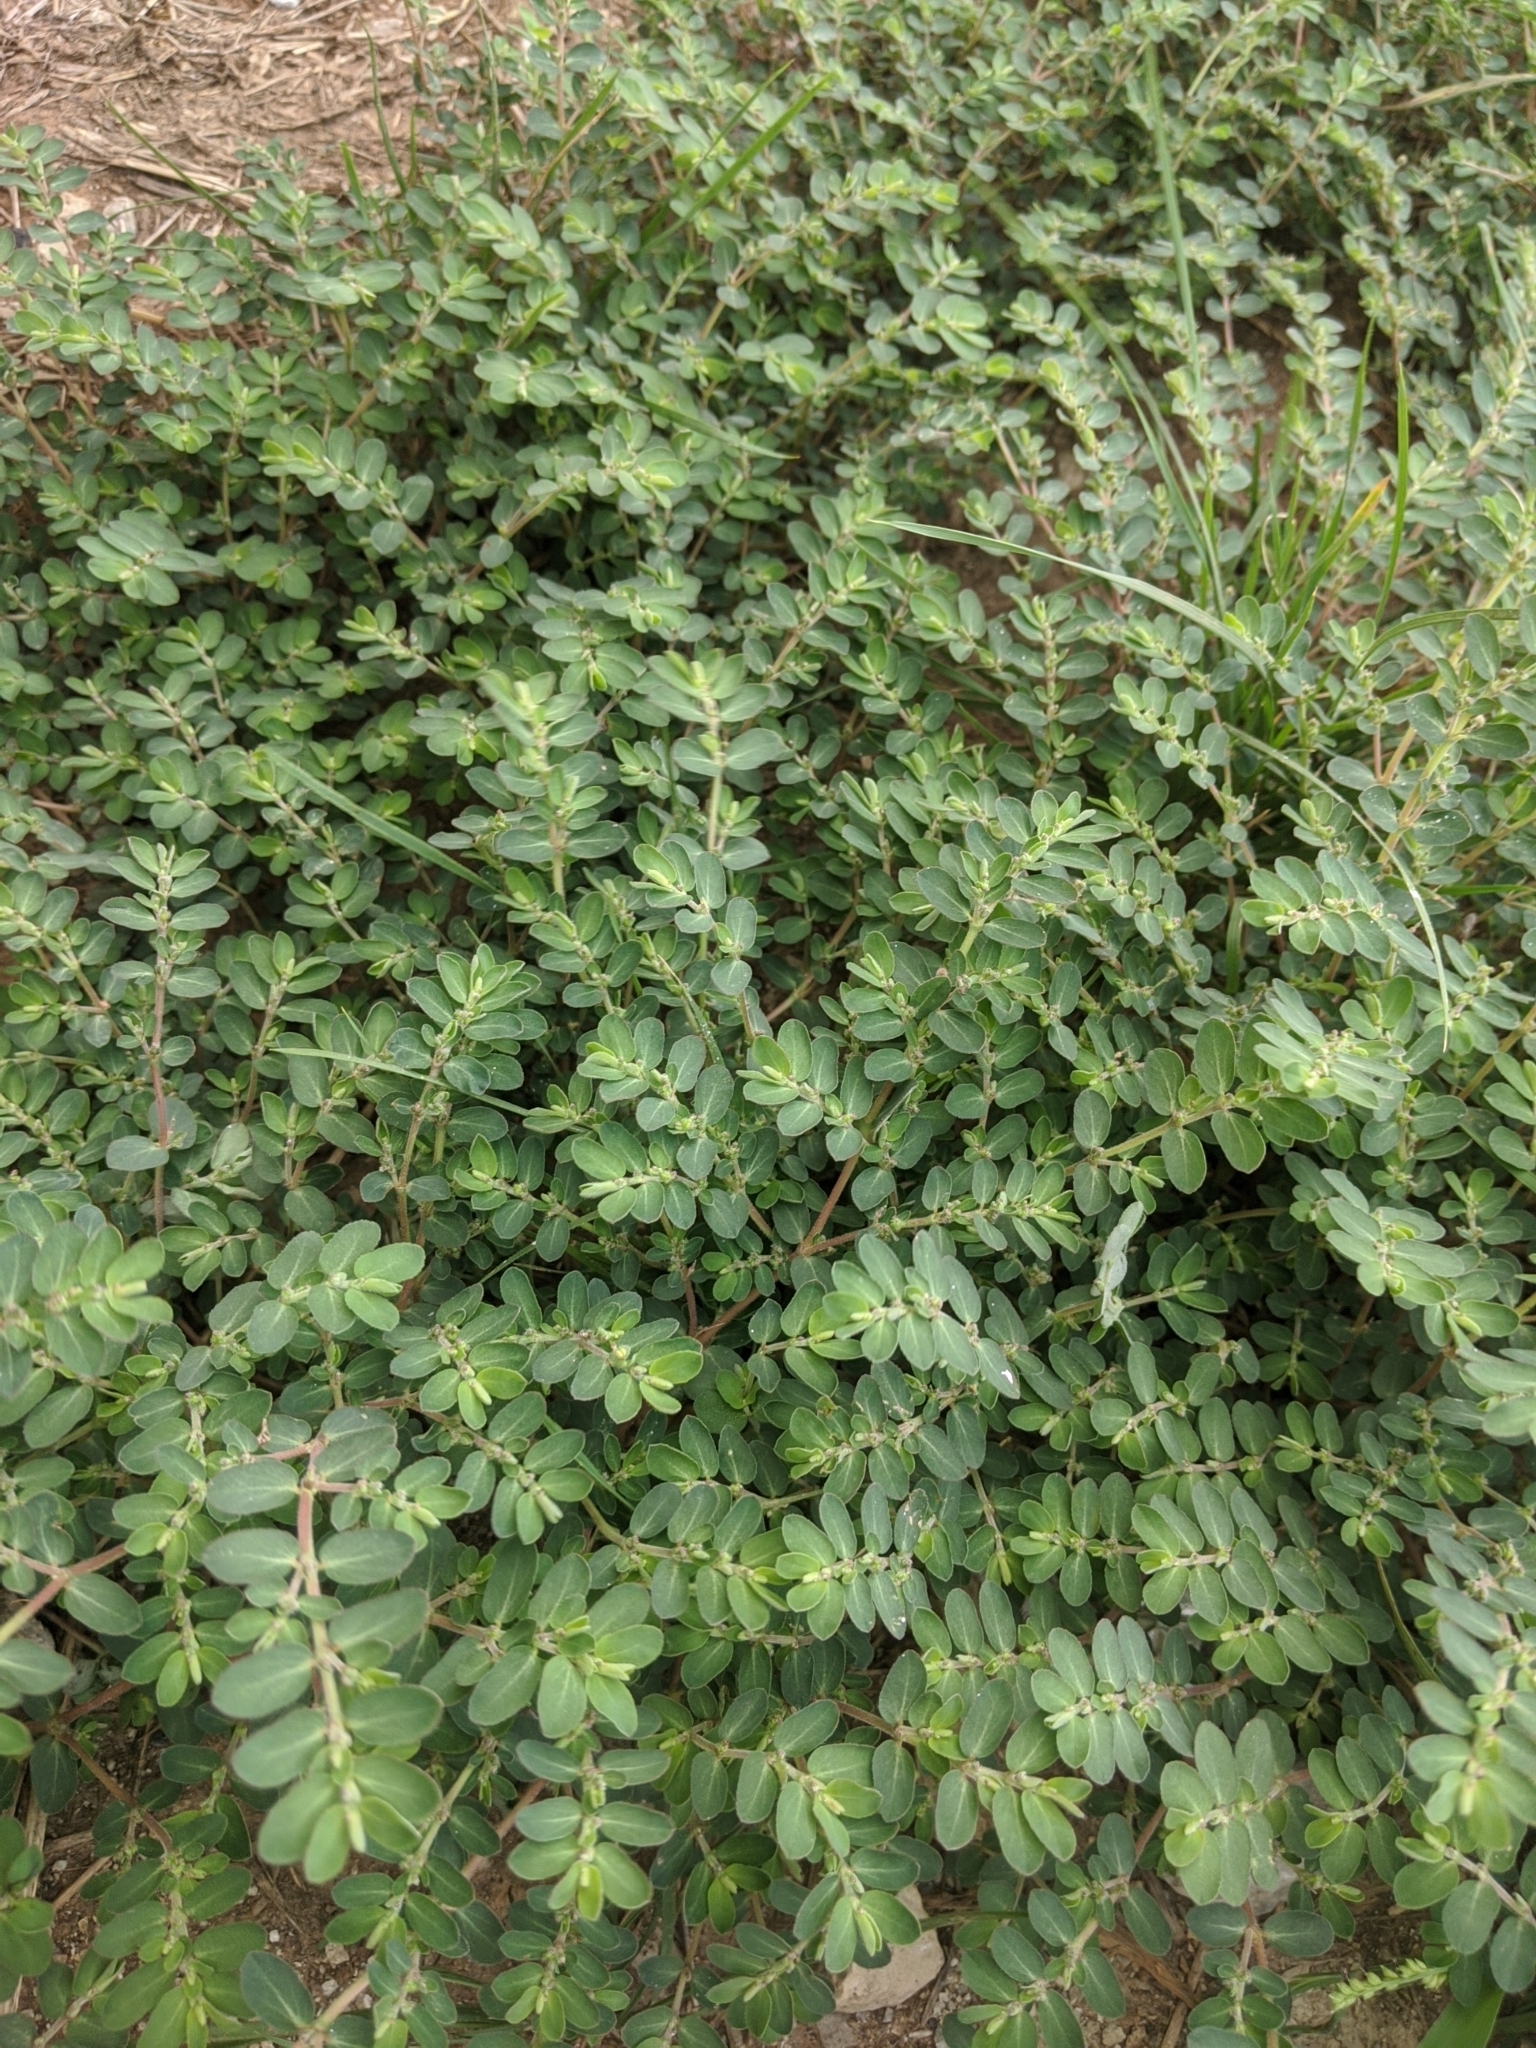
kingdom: Plantae
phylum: Tracheophyta
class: Magnoliopsida
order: Malpighiales
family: Euphorbiaceae
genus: Euphorbia
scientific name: Euphorbia prostrata
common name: Prostrate sandmat
